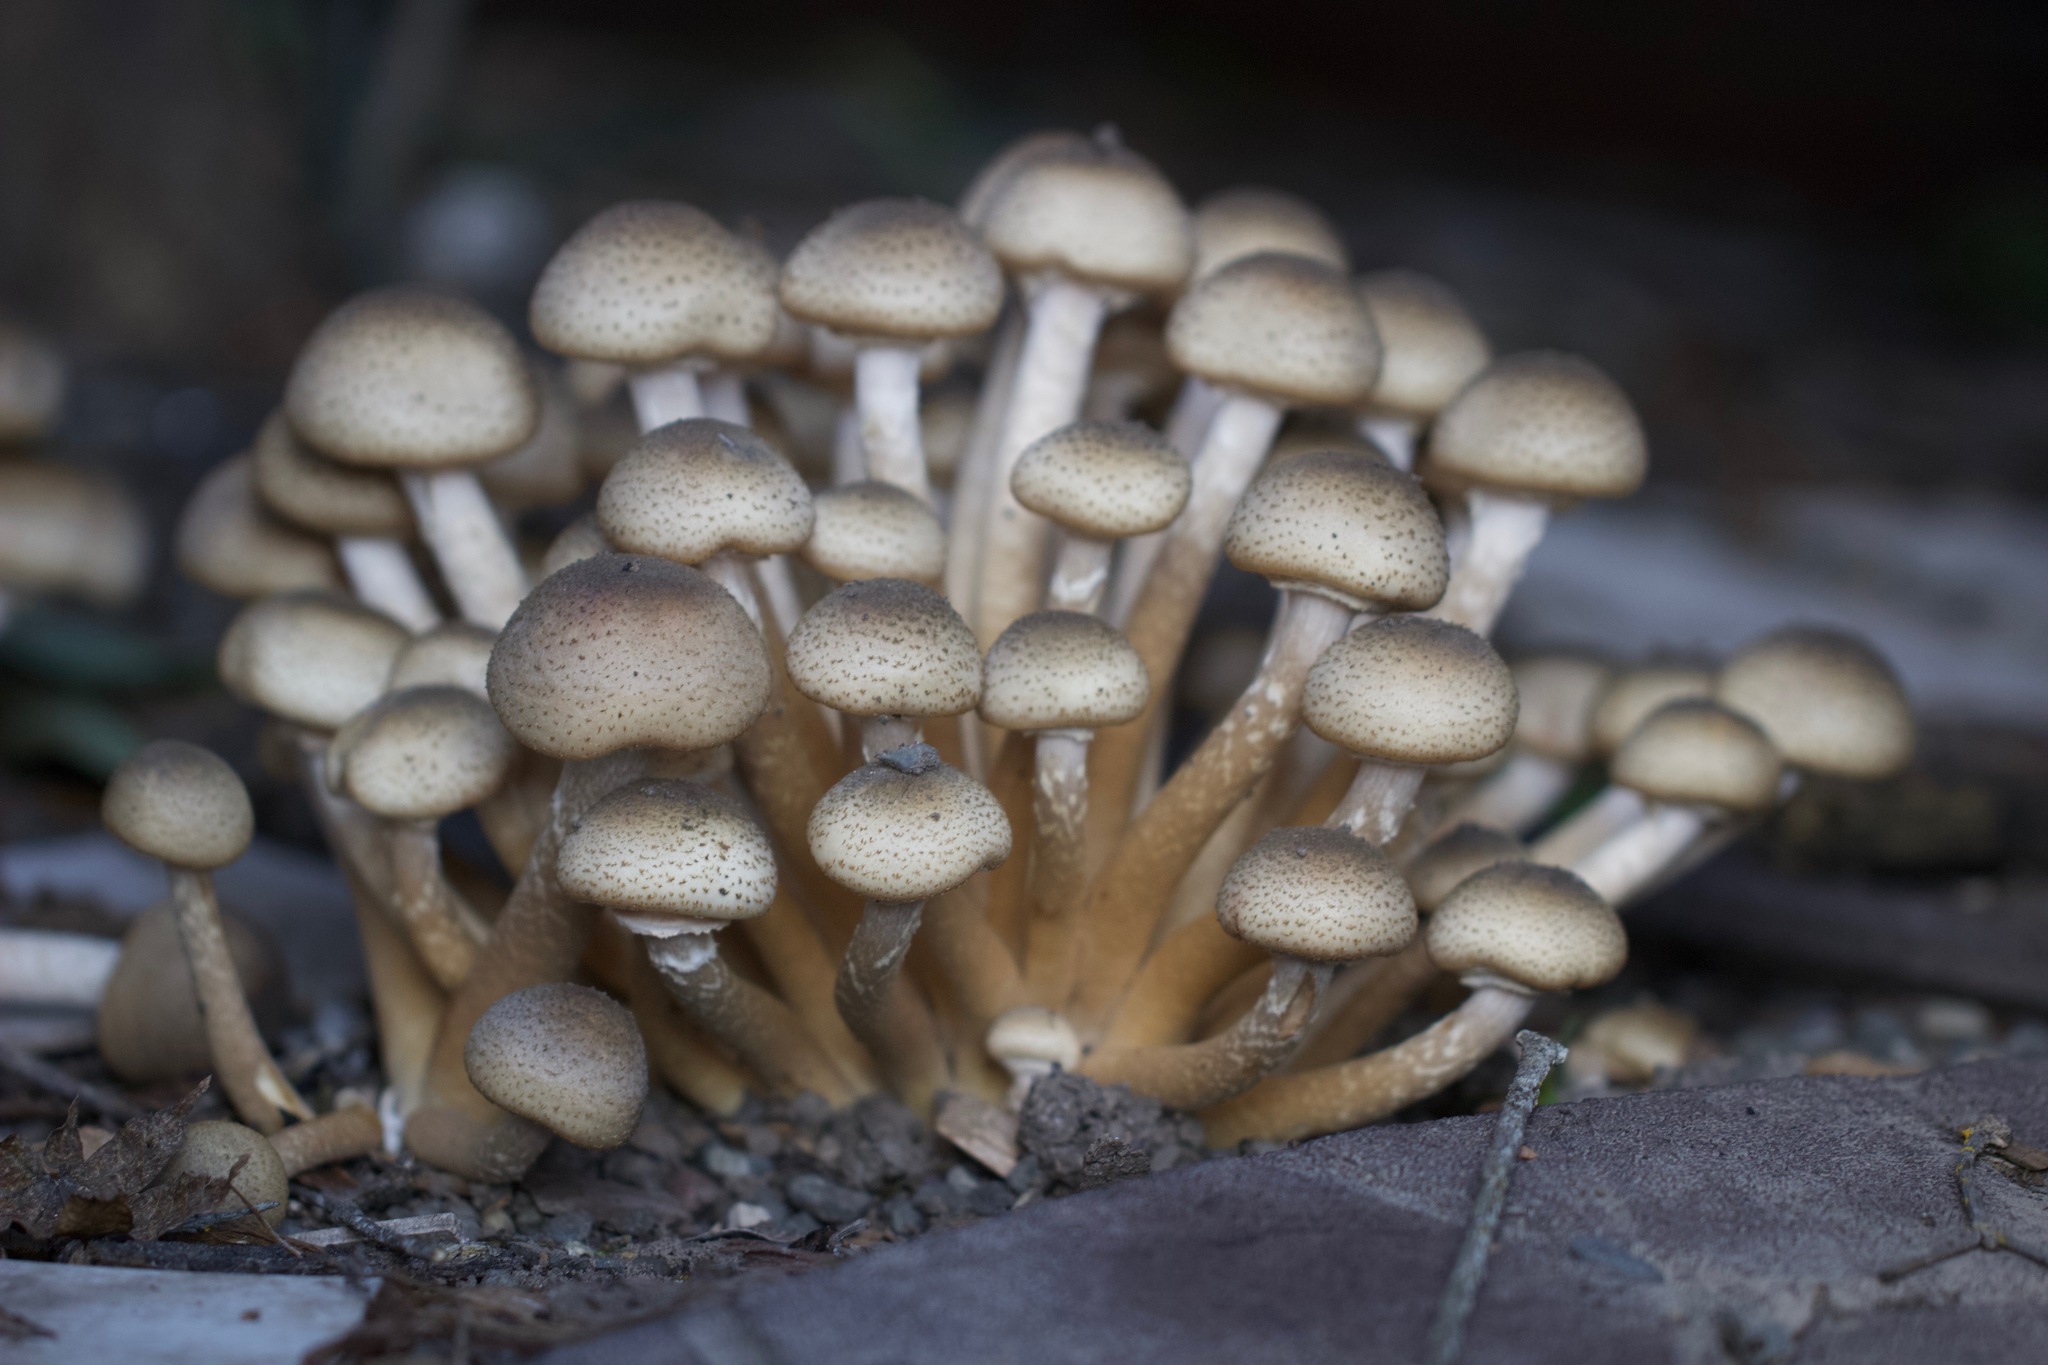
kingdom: Fungi
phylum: Basidiomycota
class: Agaricomycetes
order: Agaricales
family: Physalacriaceae
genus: Armillaria
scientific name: Armillaria mellea
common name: Honey fungus
